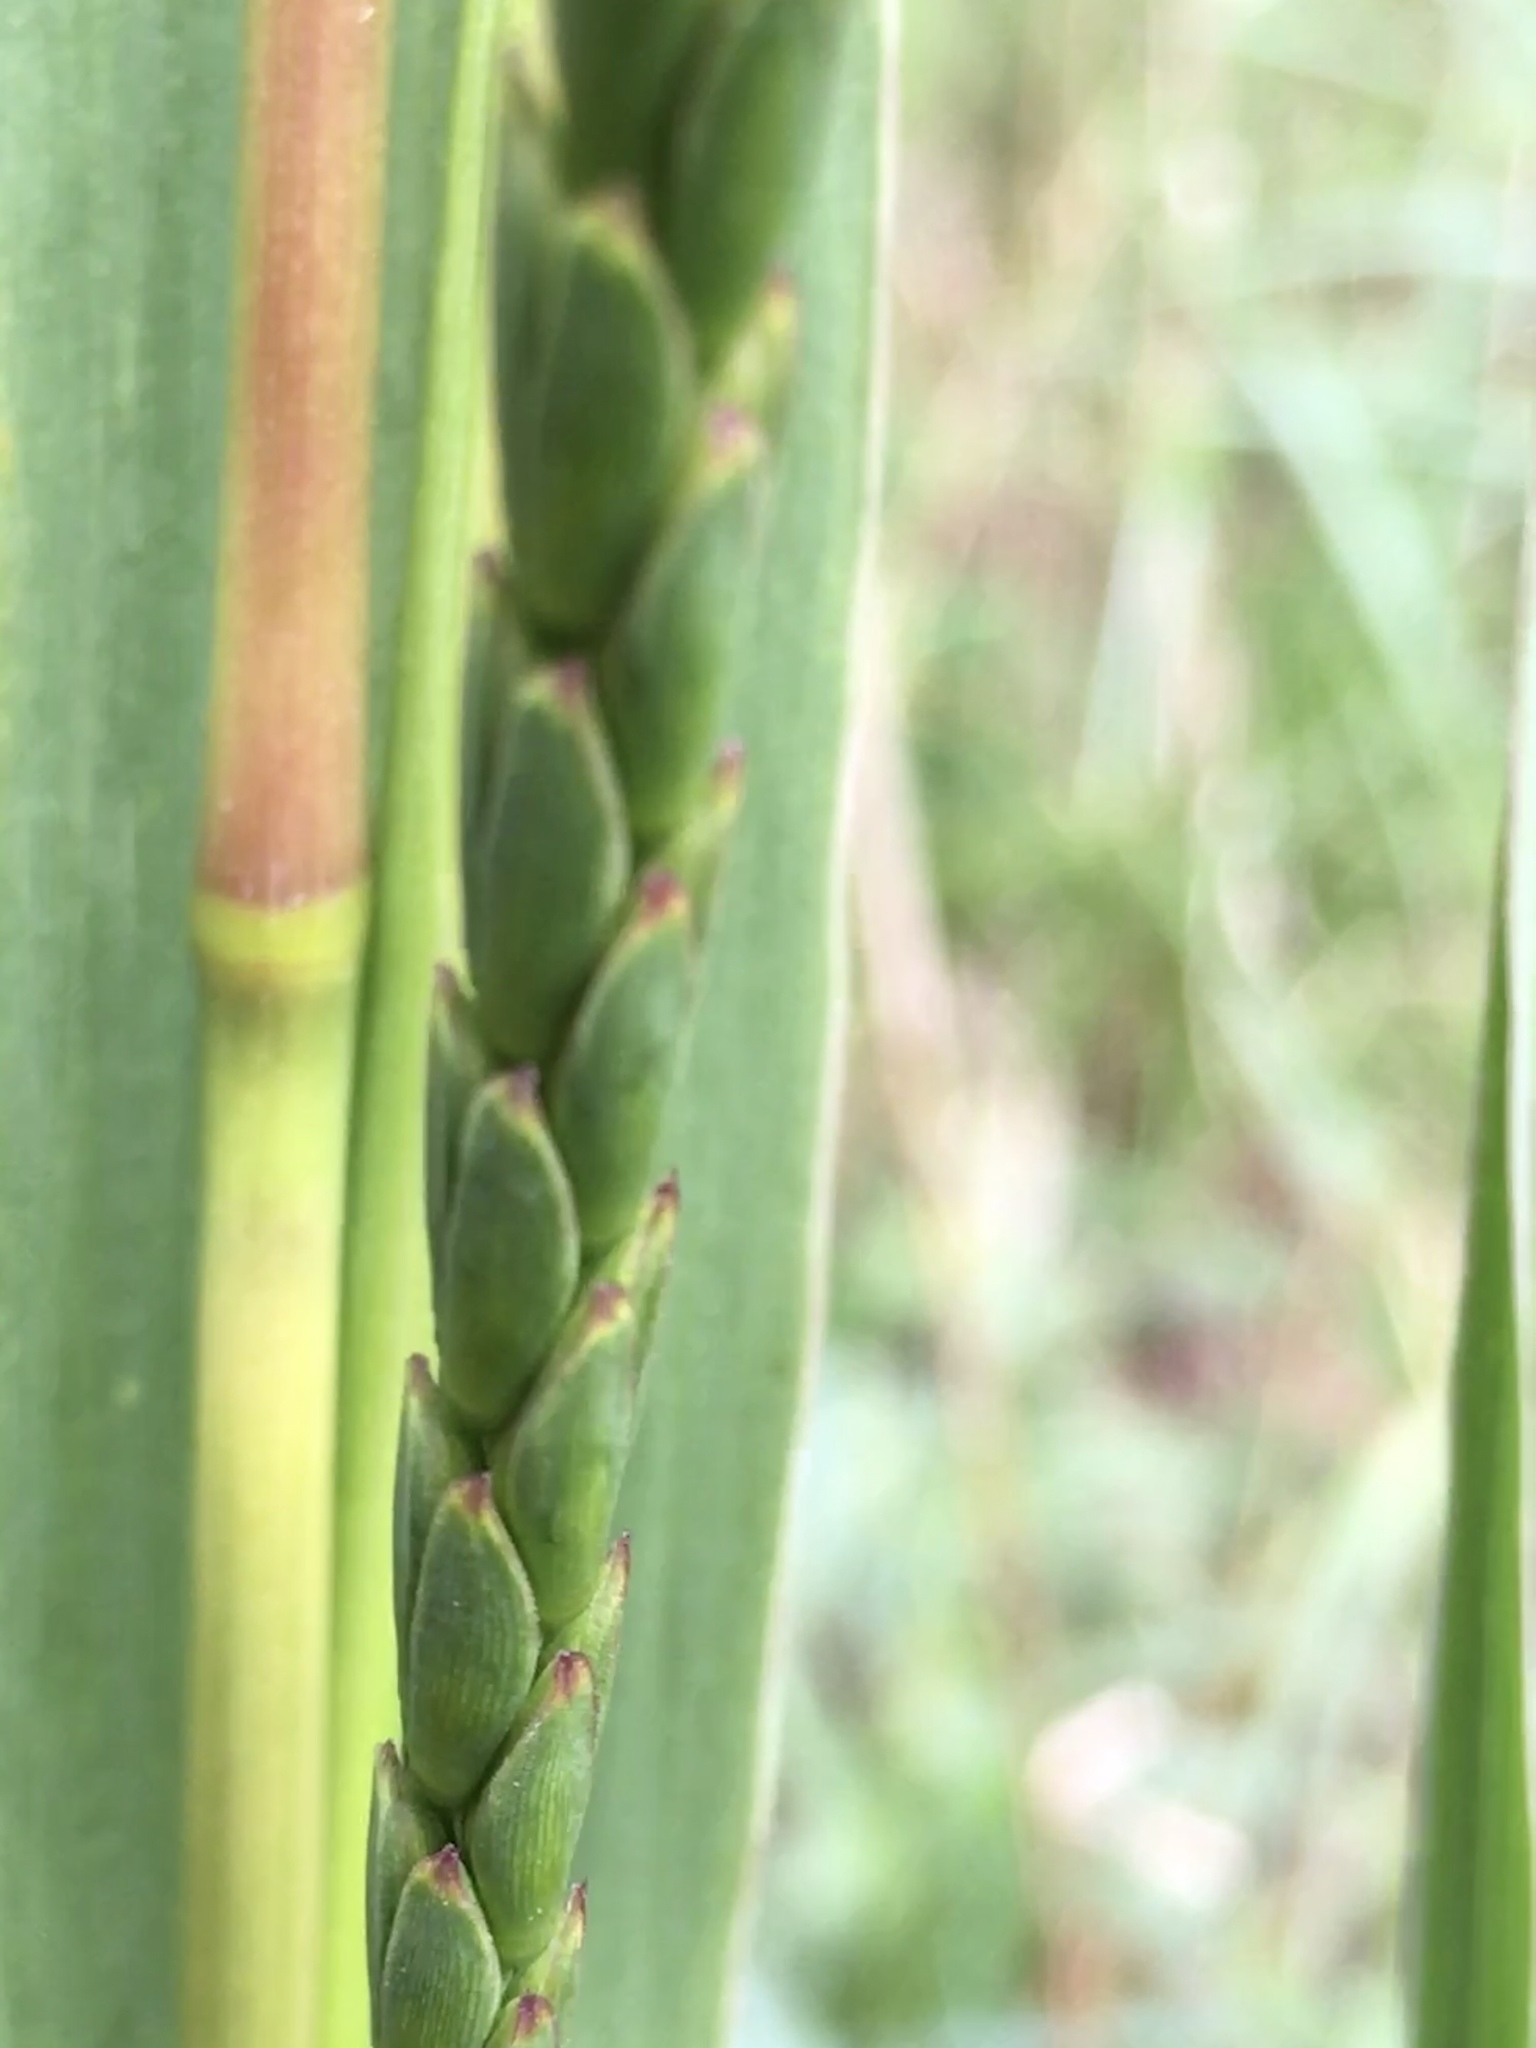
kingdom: Plantae
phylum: Tracheophyta
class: Liliopsida
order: Poales
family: Poaceae
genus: Tripsacum
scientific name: Tripsacum dactyloides
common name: Buffalo-grass
